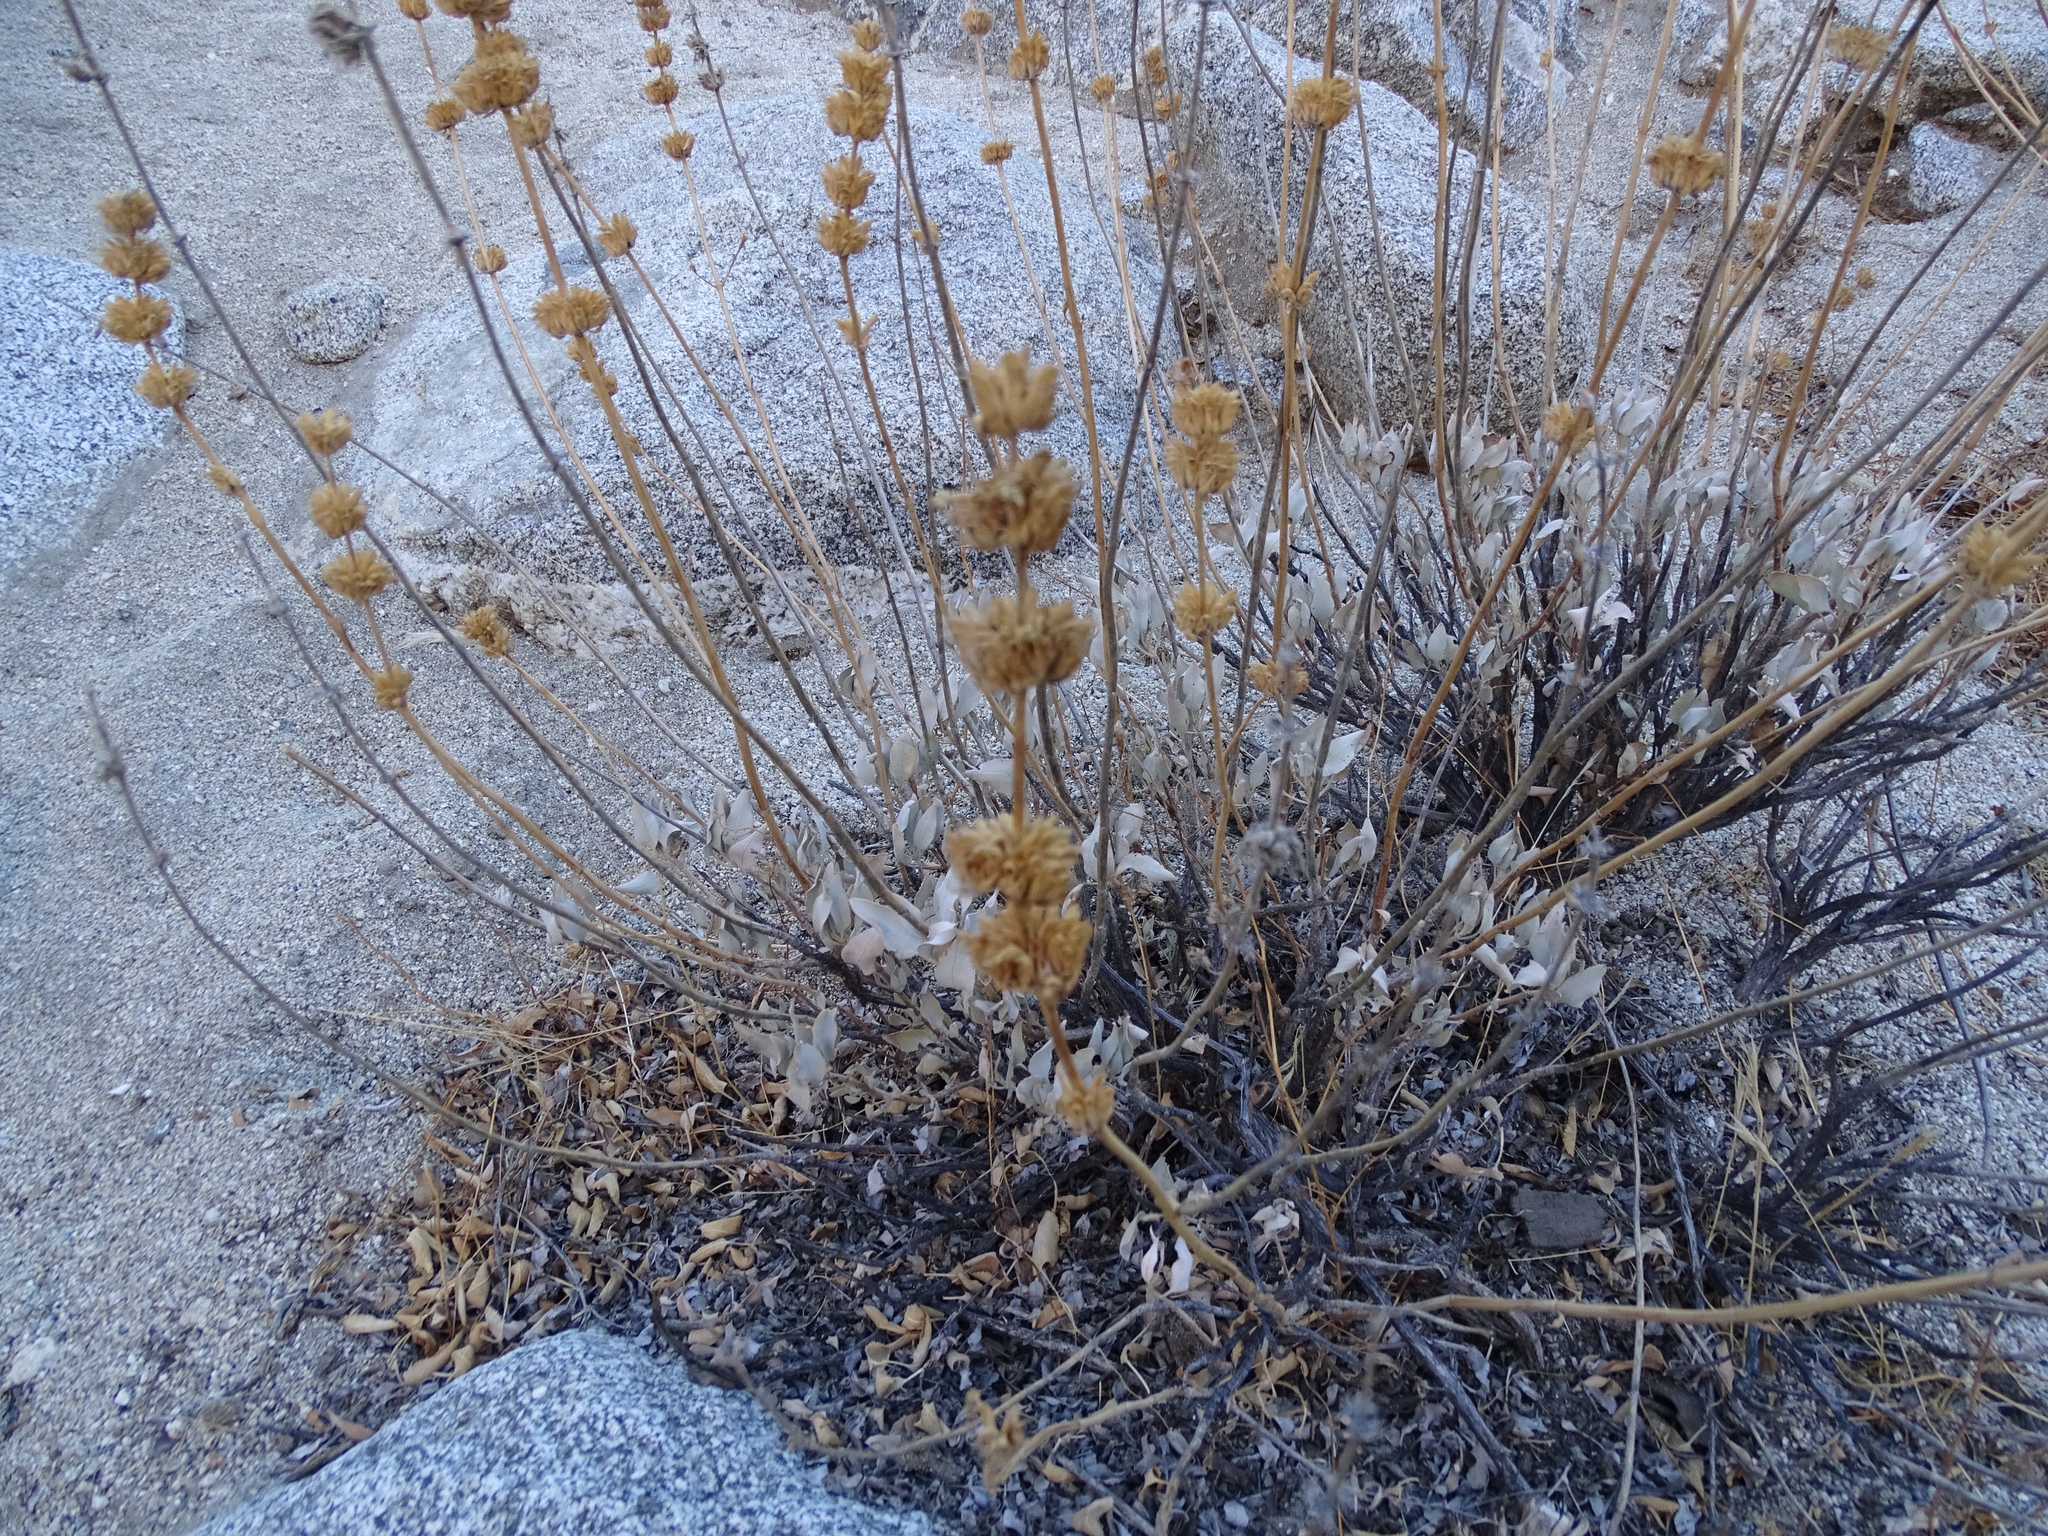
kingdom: Plantae
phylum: Tracheophyta
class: Magnoliopsida
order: Lamiales
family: Lamiaceae
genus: Salvia
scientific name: Salvia vaseyi
